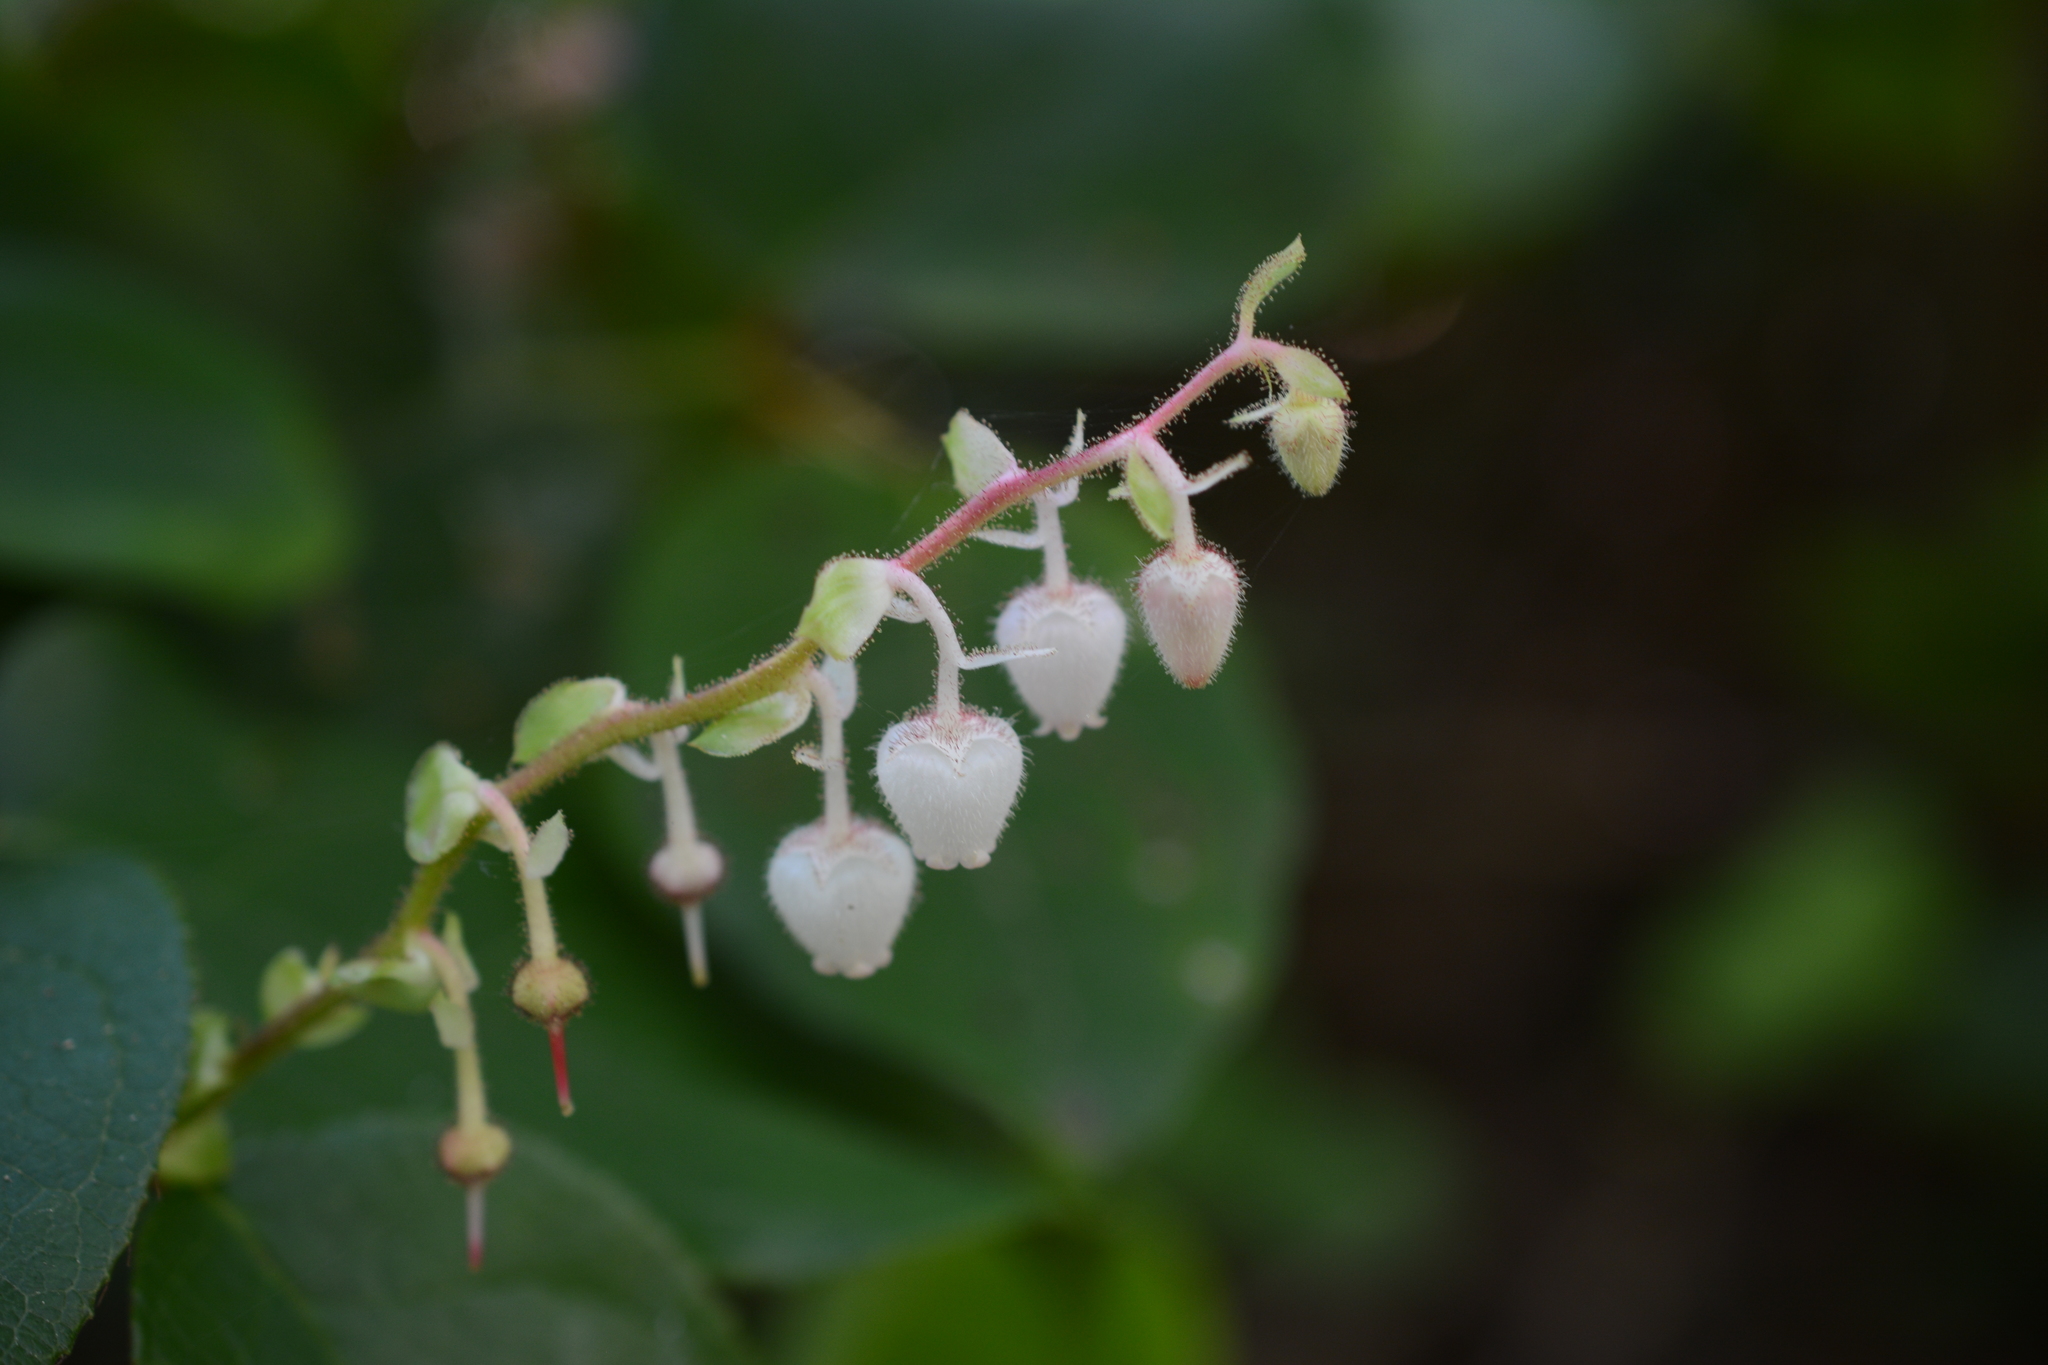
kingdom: Plantae
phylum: Tracheophyta
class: Magnoliopsida
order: Ericales
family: Ericaceae
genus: Gaultheria
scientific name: Gaultheria shallon
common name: Shallon
